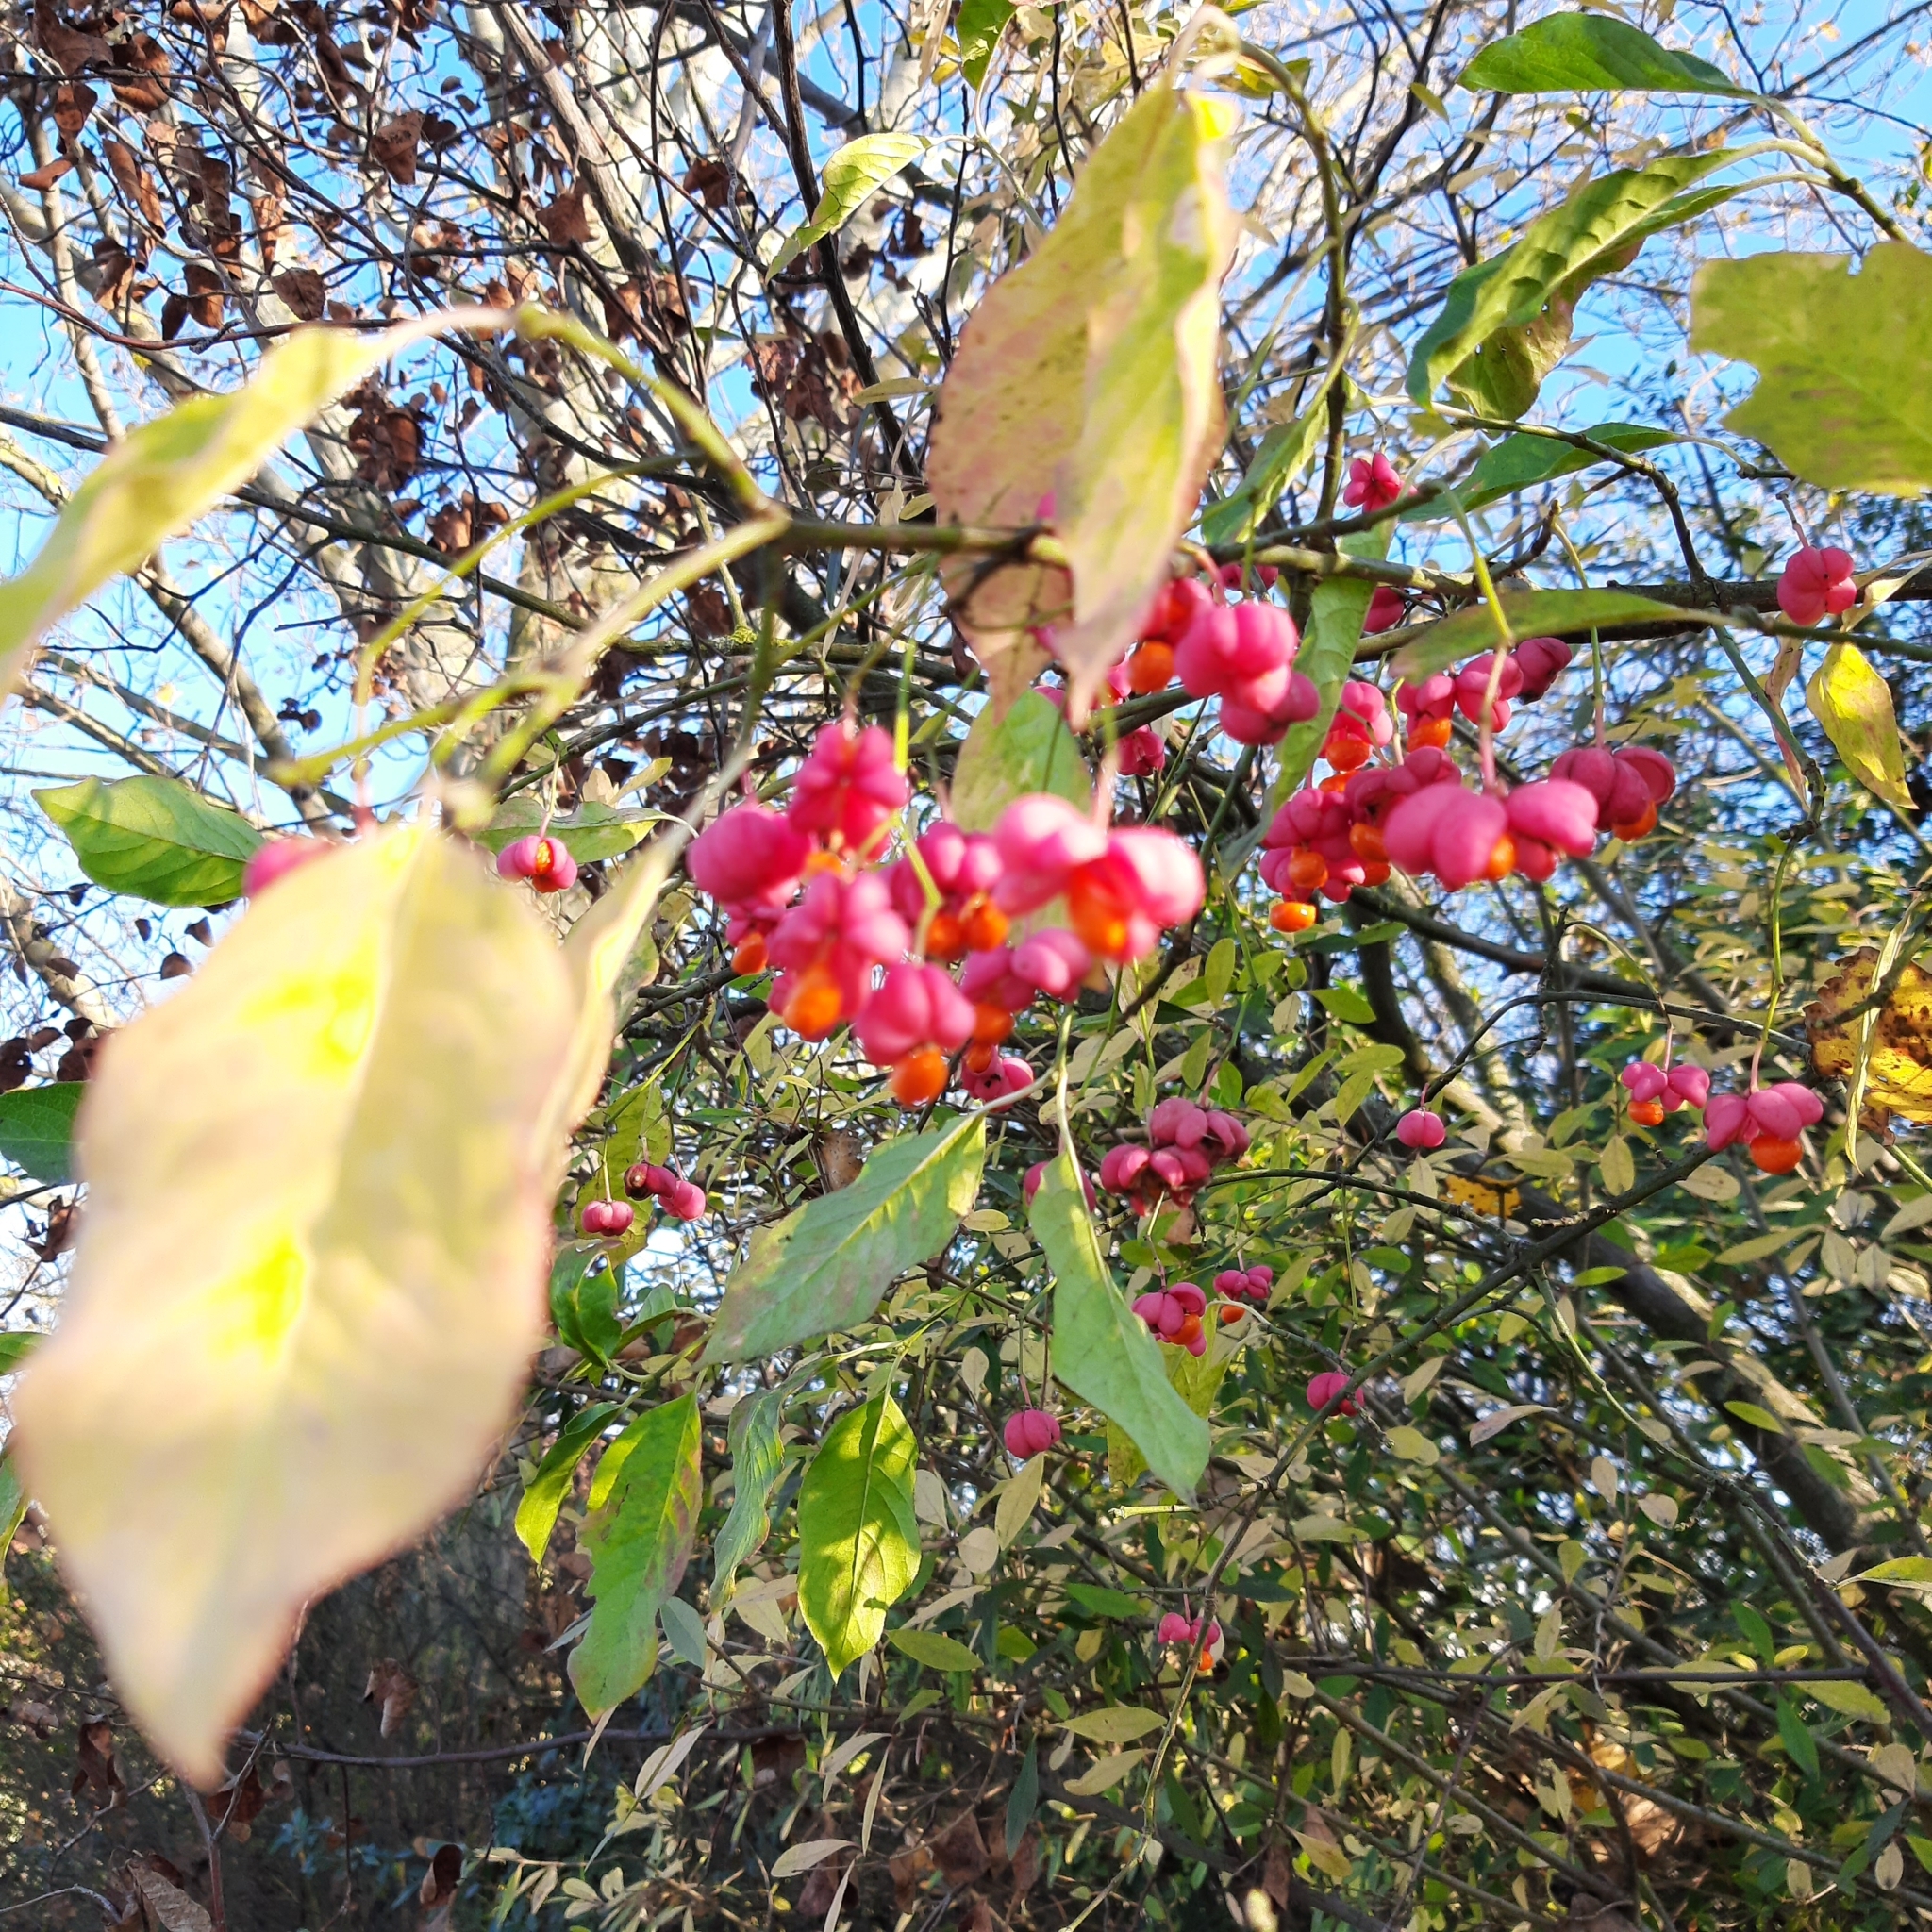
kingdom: Plantae
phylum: Tracheophyta
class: Magnoliopsida
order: Celastrales
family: Celastraceae
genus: Euonymus
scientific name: Euonymus europaeus
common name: Spindle
